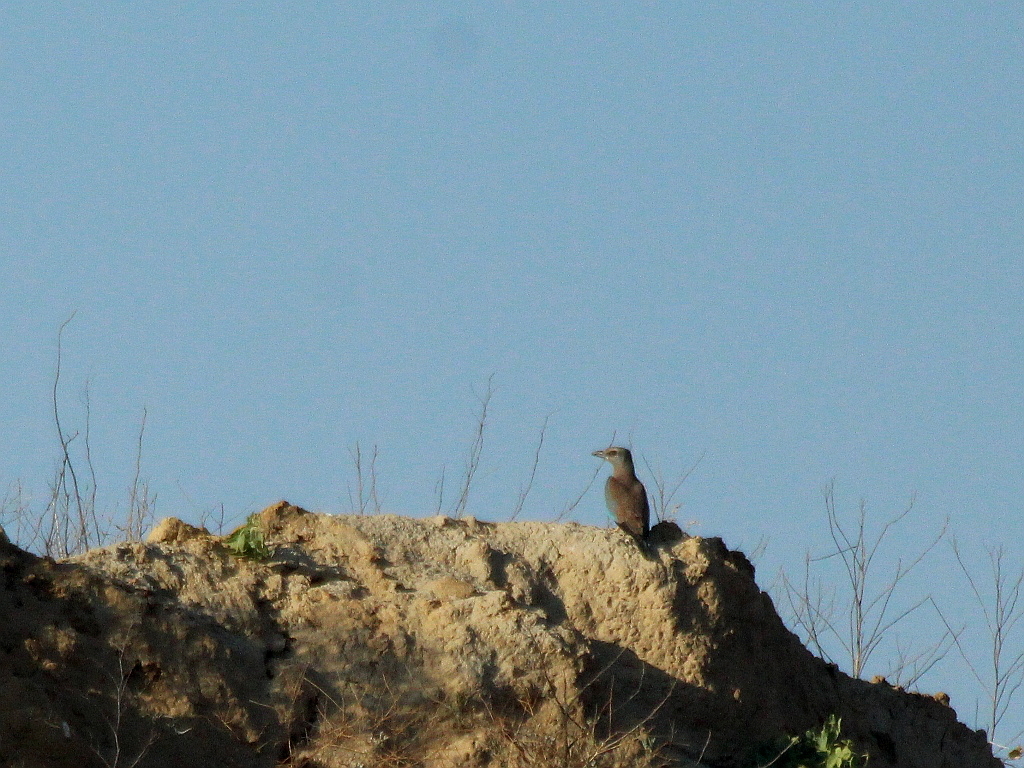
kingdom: Animalia
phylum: Chordata
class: Aves
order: Coraciiformes
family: Coraciidae
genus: Coracias
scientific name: Coracias garrulus
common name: European roller
